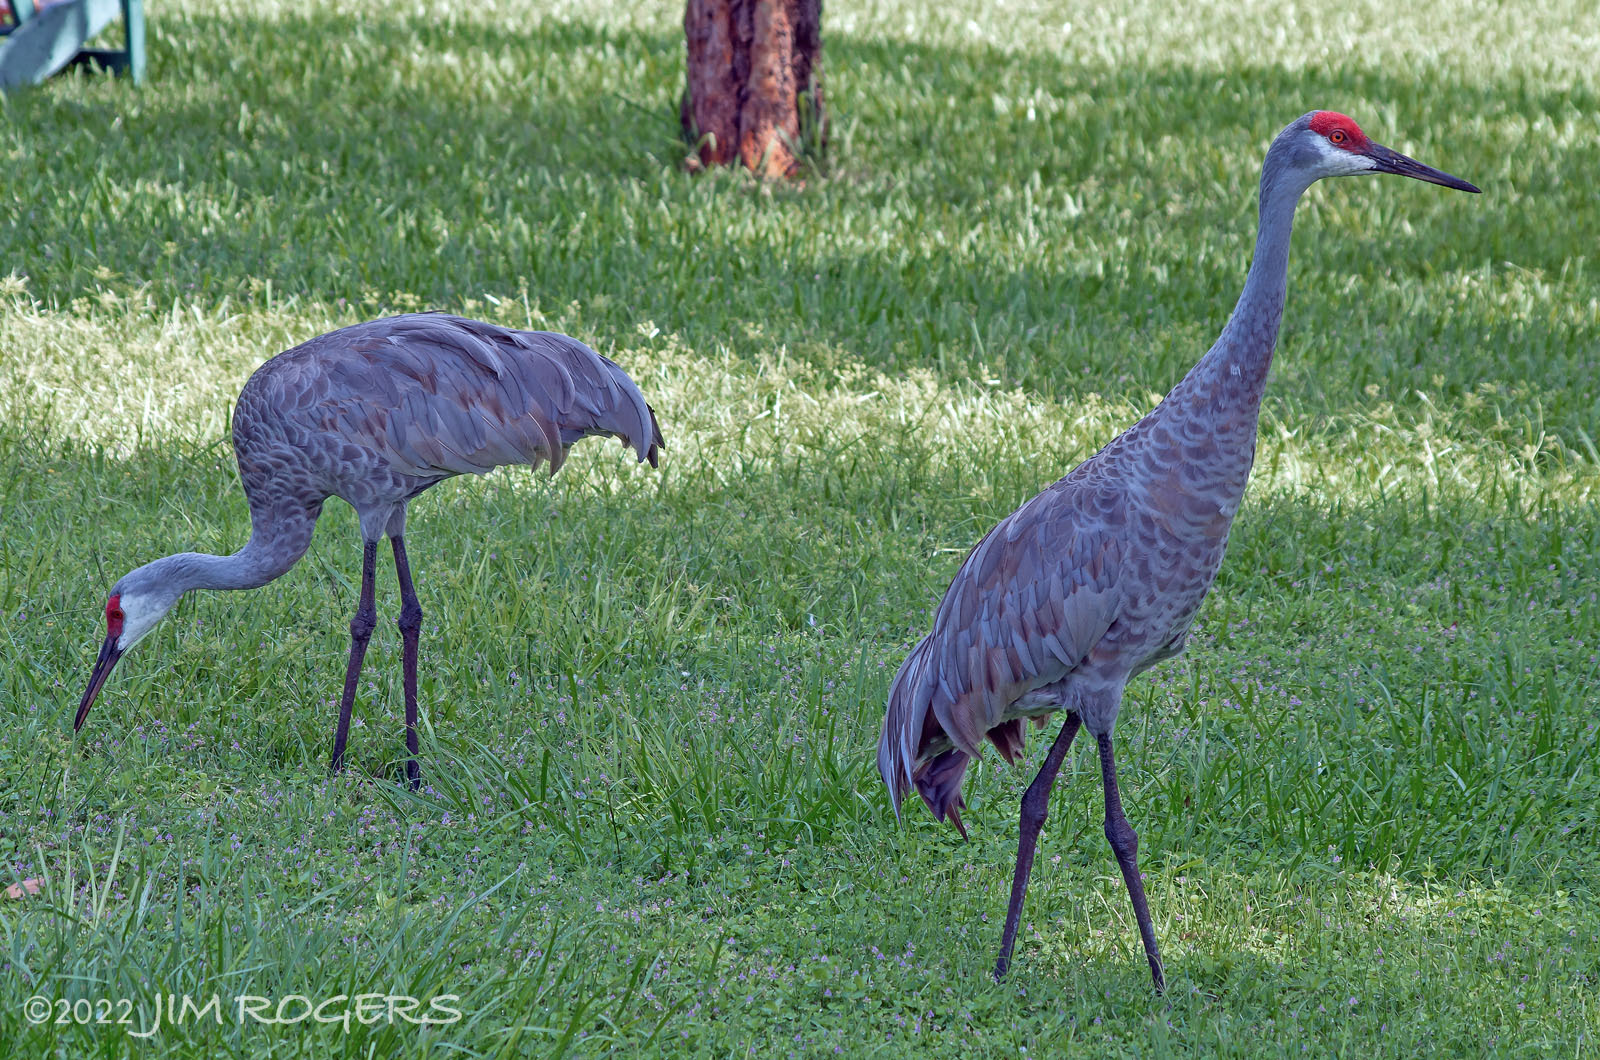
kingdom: Animalia
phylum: Chordata
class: Aves
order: Gruiformes
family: Gruidae
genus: Grus
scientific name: Grus canadensis
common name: Sandhill crane
